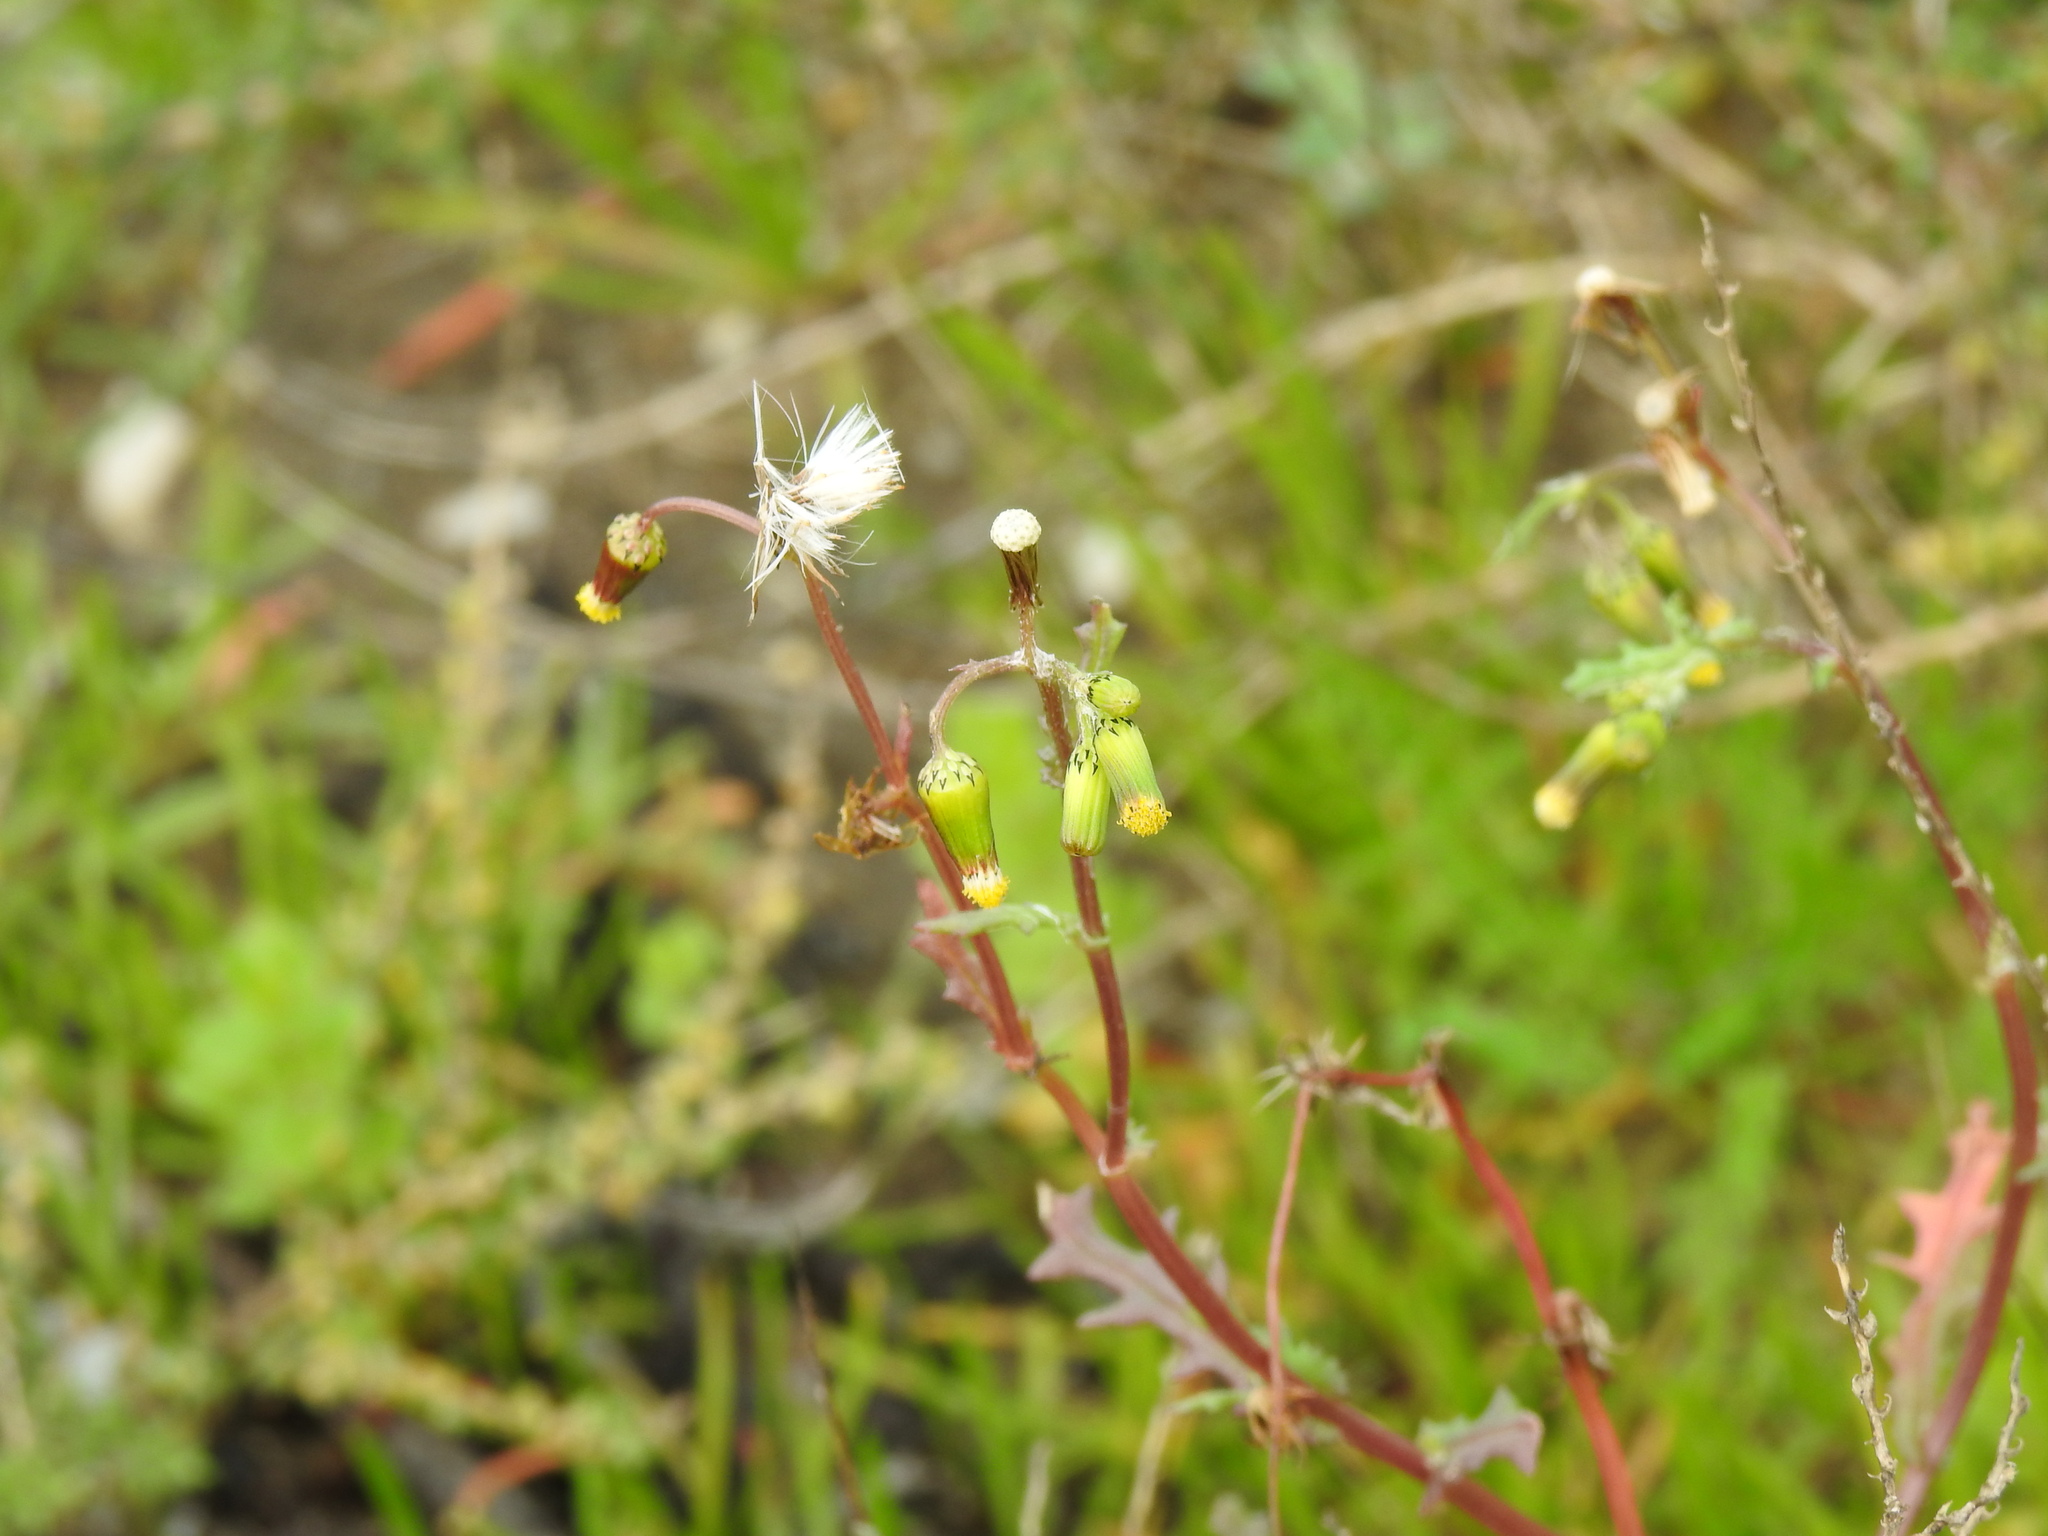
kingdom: Plantae
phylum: Tracheophyta
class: Magnoliopsida
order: Asterales
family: Asteraceae
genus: Senecio
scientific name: Senecio vulgaris
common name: Old-man-in-the-spring
